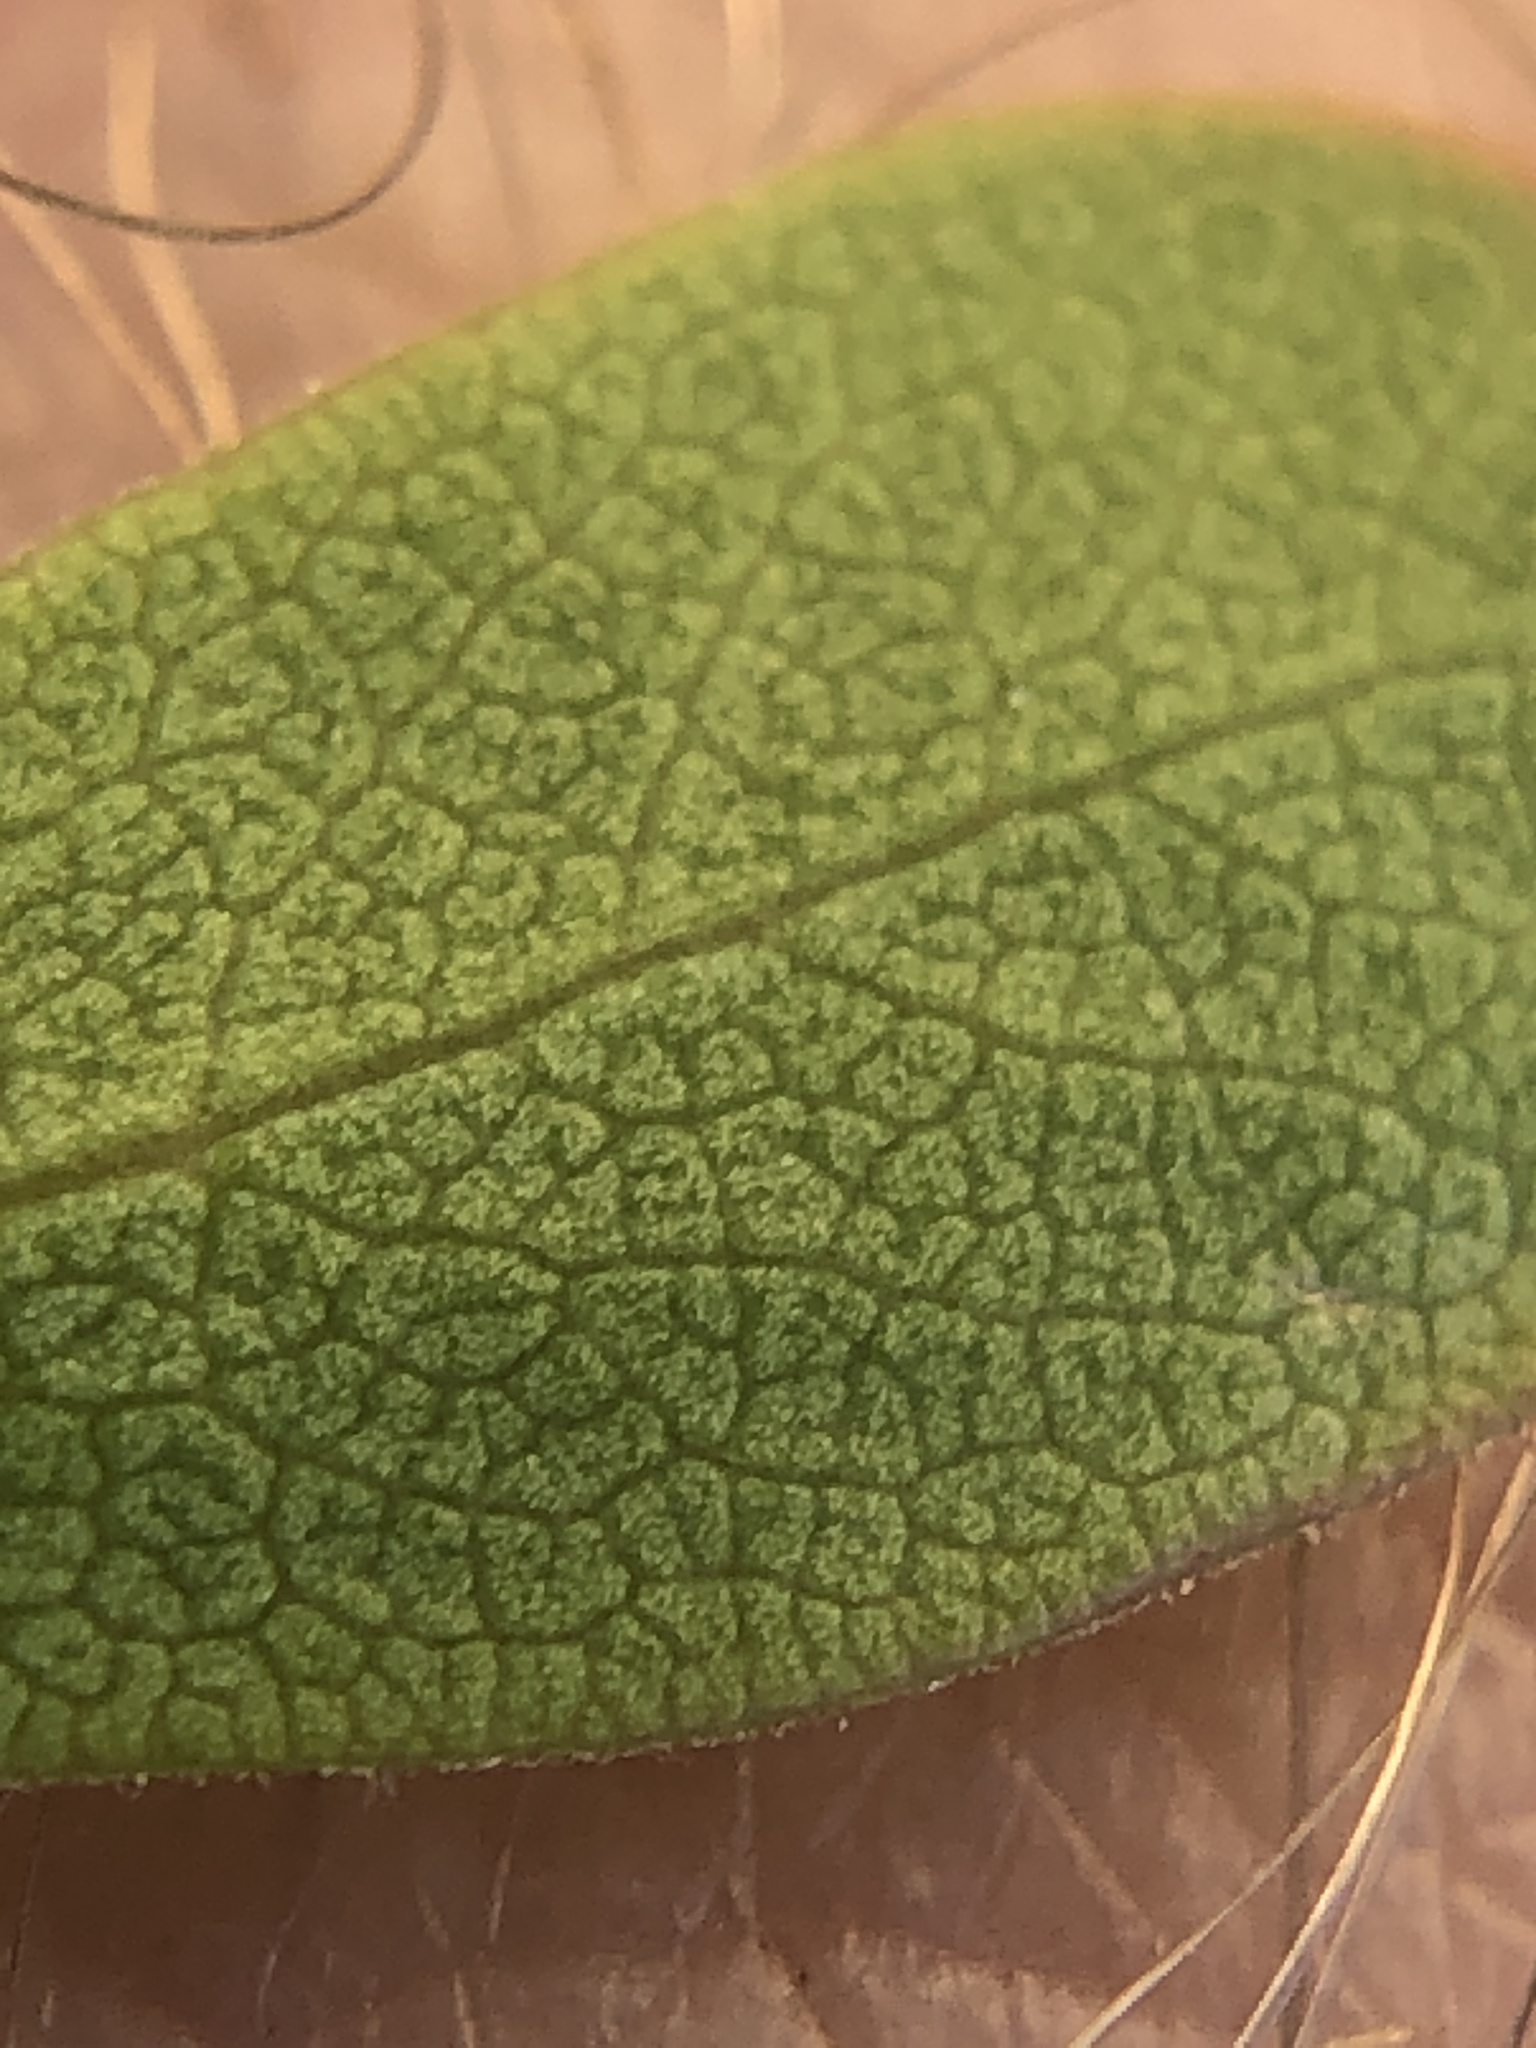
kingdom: Plantae
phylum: Tracheophyta
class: Magnoliopsida
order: Ericales
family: Ericaceae
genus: Arctostaphylos
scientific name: Arctostaphylos uva-ursi
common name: Bearberry
